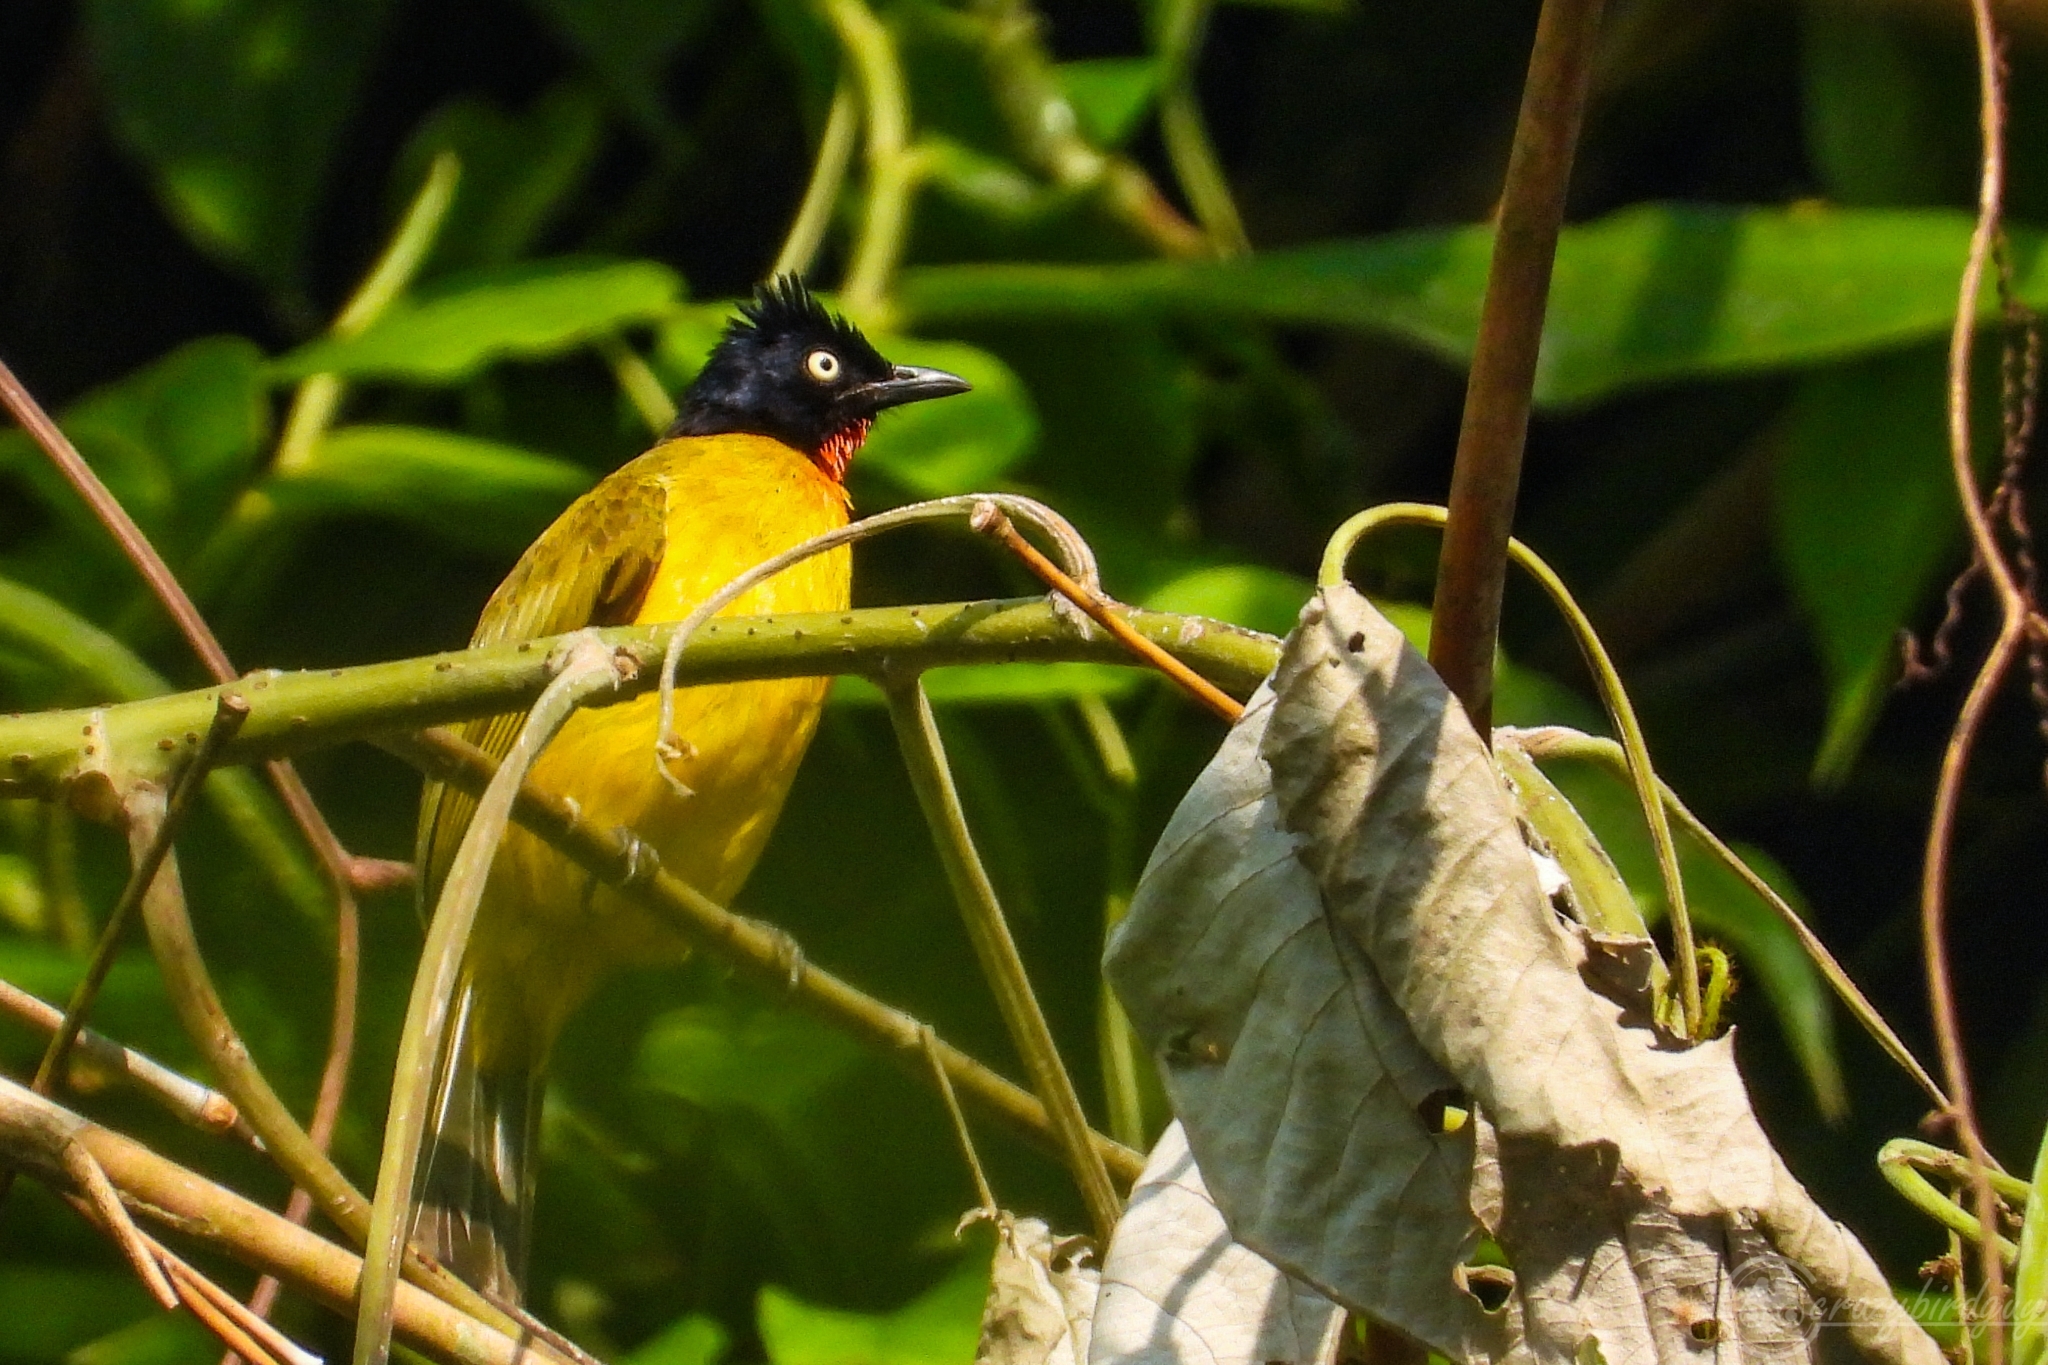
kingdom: Animalia
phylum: Chordata
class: Aves
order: Passeriformes
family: Pycnonotidae
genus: Pycnonotus
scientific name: Pycnonotus dispar
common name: Ruby-throated bulbul
